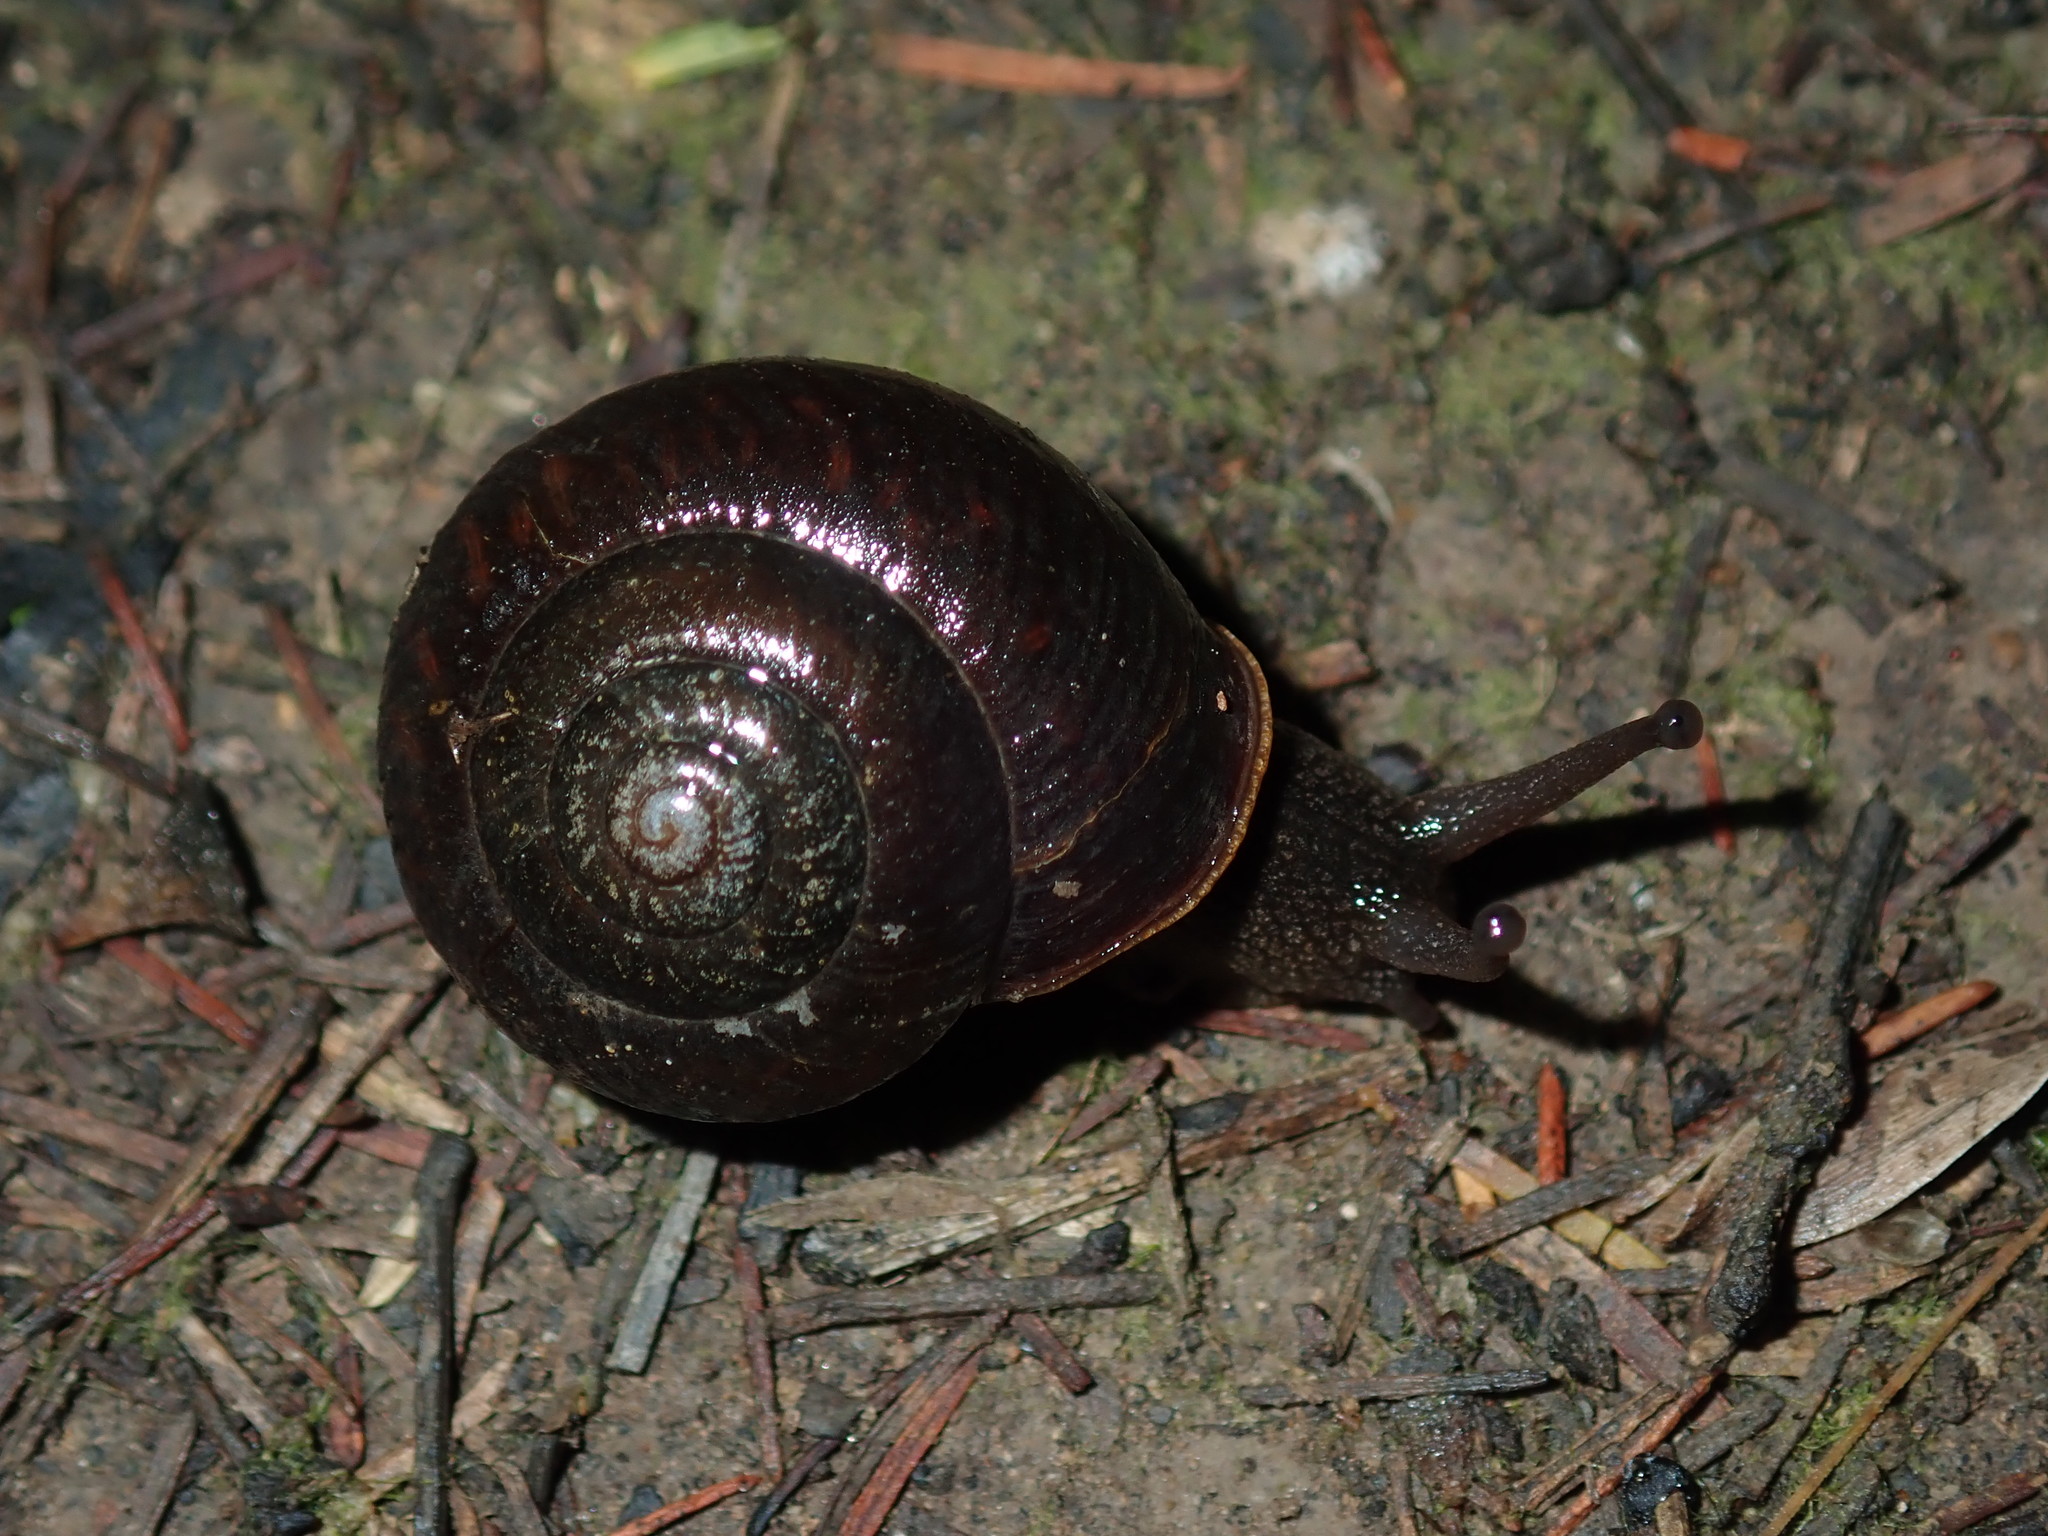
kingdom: Animalia
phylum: Mollusca
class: Gastropoda
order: Stylommatophora
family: Camaenidae
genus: Sauroconcha
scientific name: Sauroconcha sheai
